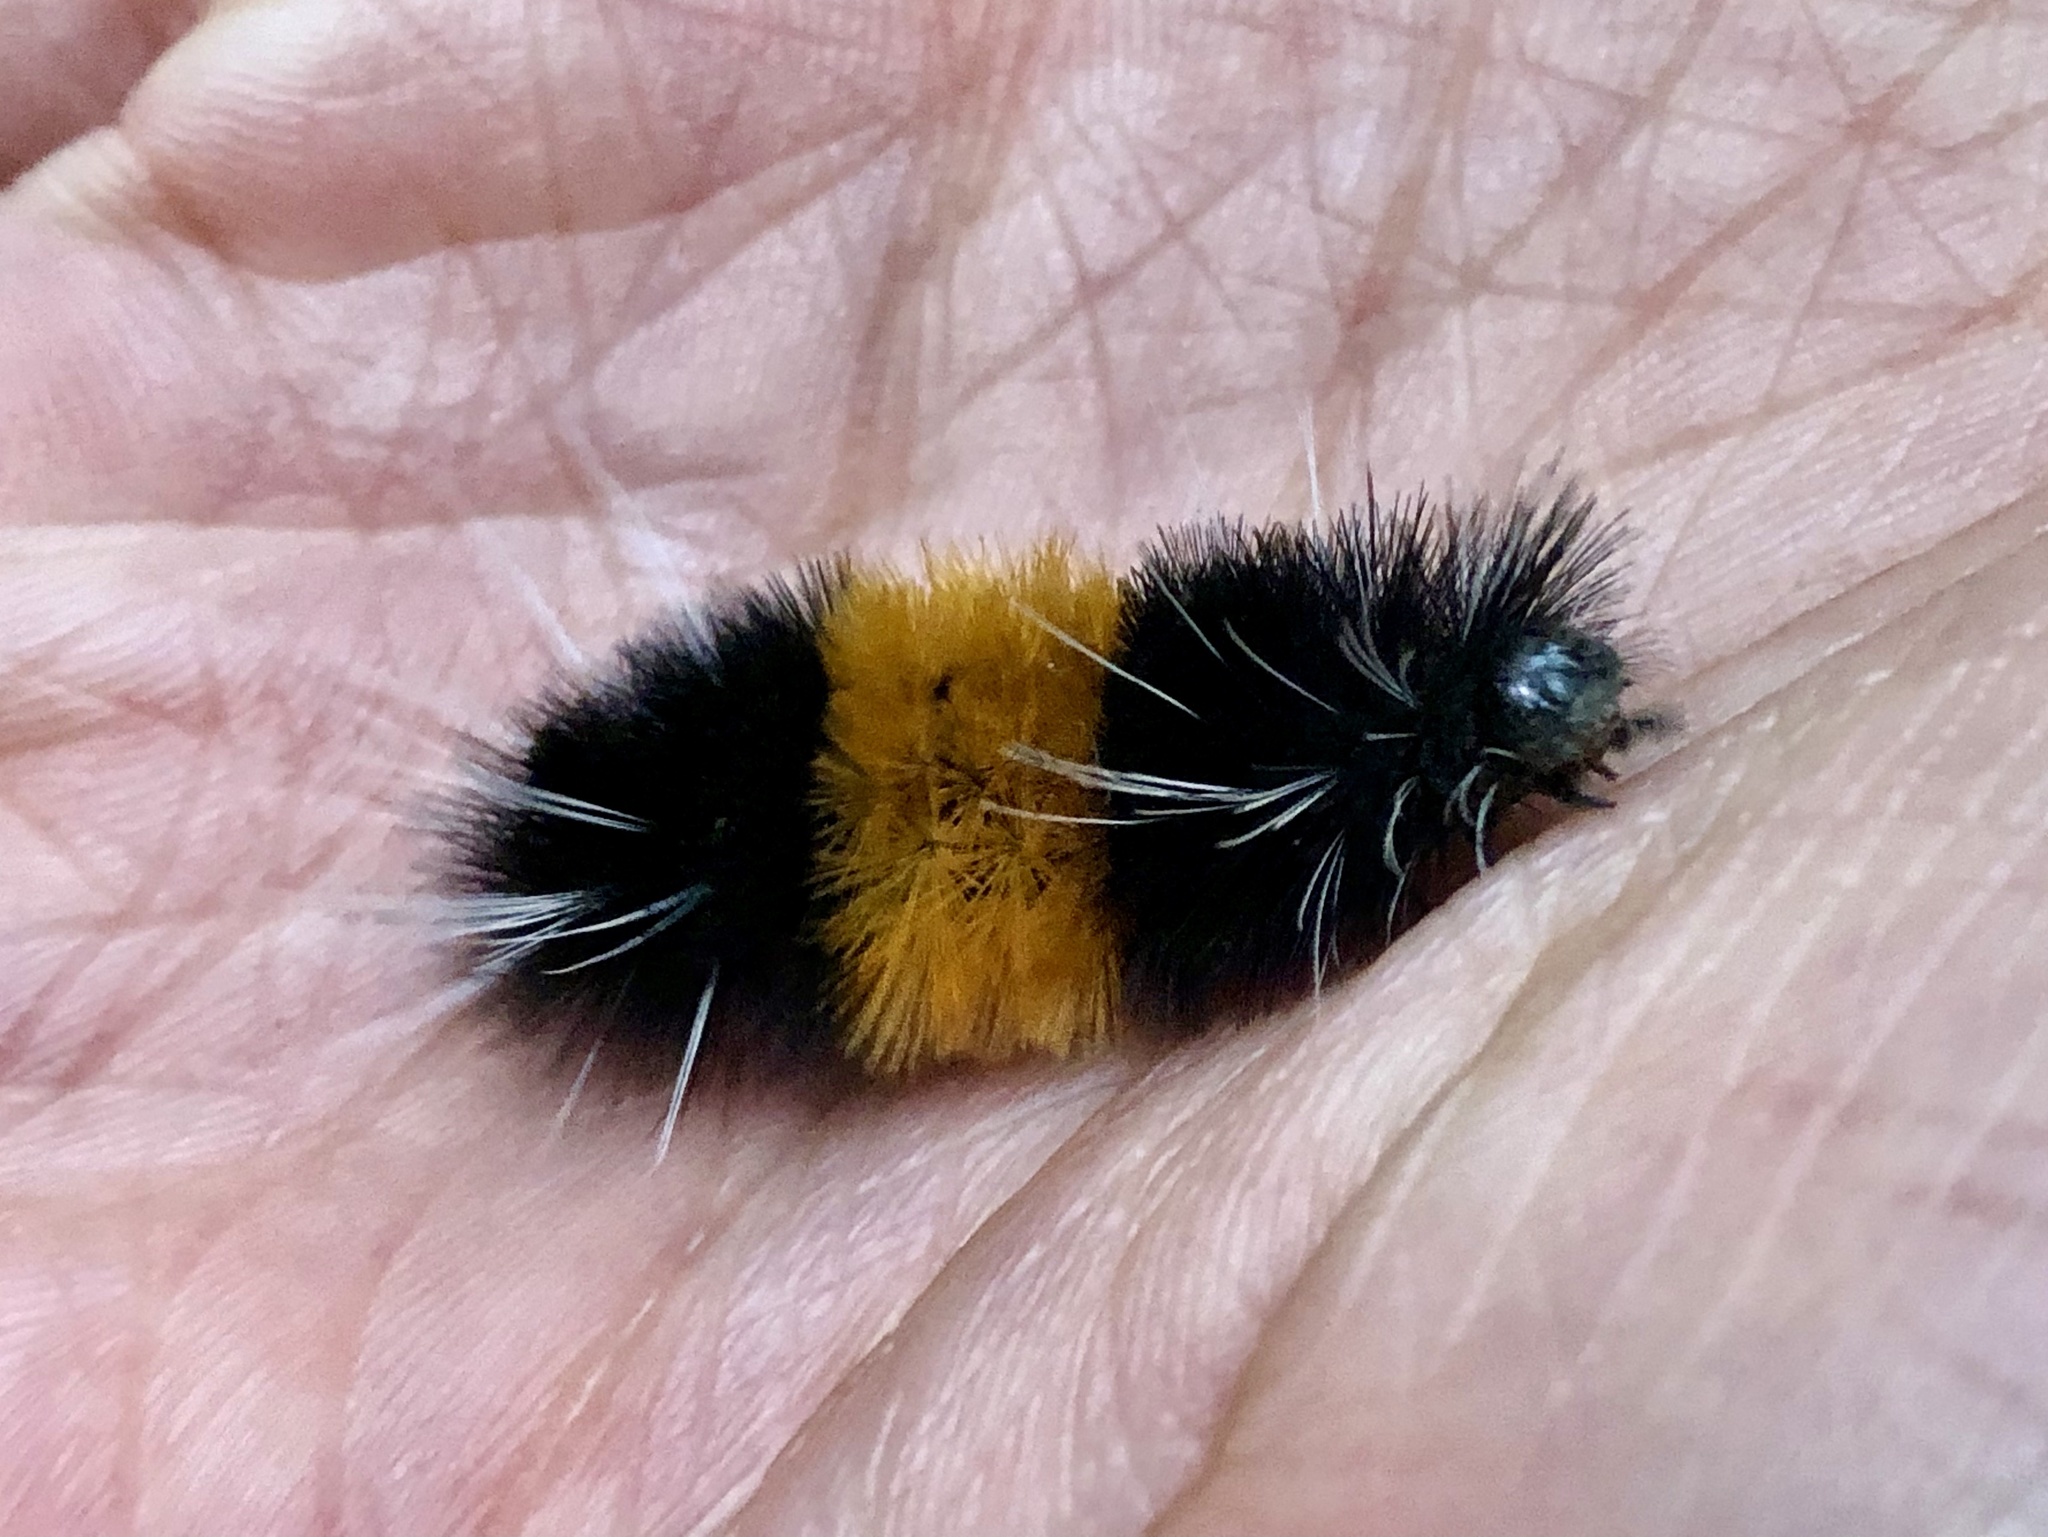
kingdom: Animalia
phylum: Arthropoda
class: Insecta
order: Lepidoptera
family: Erebidae
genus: Lophocampa
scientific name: Lophocampa maculata
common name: Spotted tussock moth
